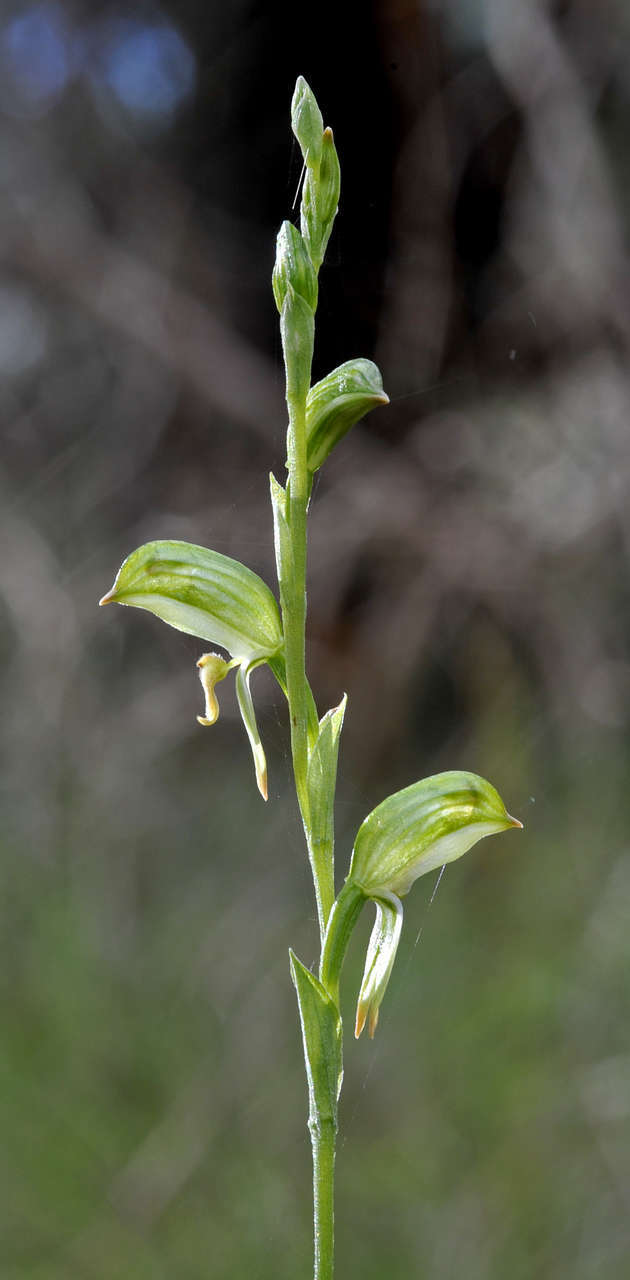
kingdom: Plantae
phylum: Tracheophyta
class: Liliopsida
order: Asparagales
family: Orchidaceae
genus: Pterostylis
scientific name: Pterostylis melagramma
